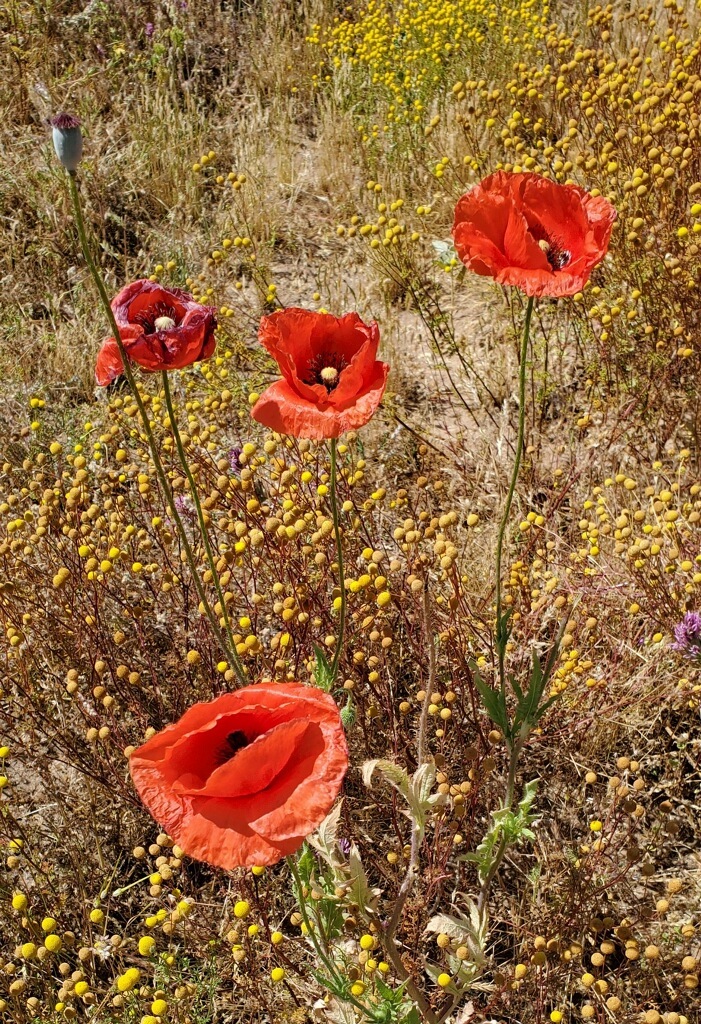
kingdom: Plantae
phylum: Tracheophyta
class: Magnoliopsida
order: Ranunculales
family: Papaveraceae
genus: Papaver
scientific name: Papaver rhoeas
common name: Corn poppy
